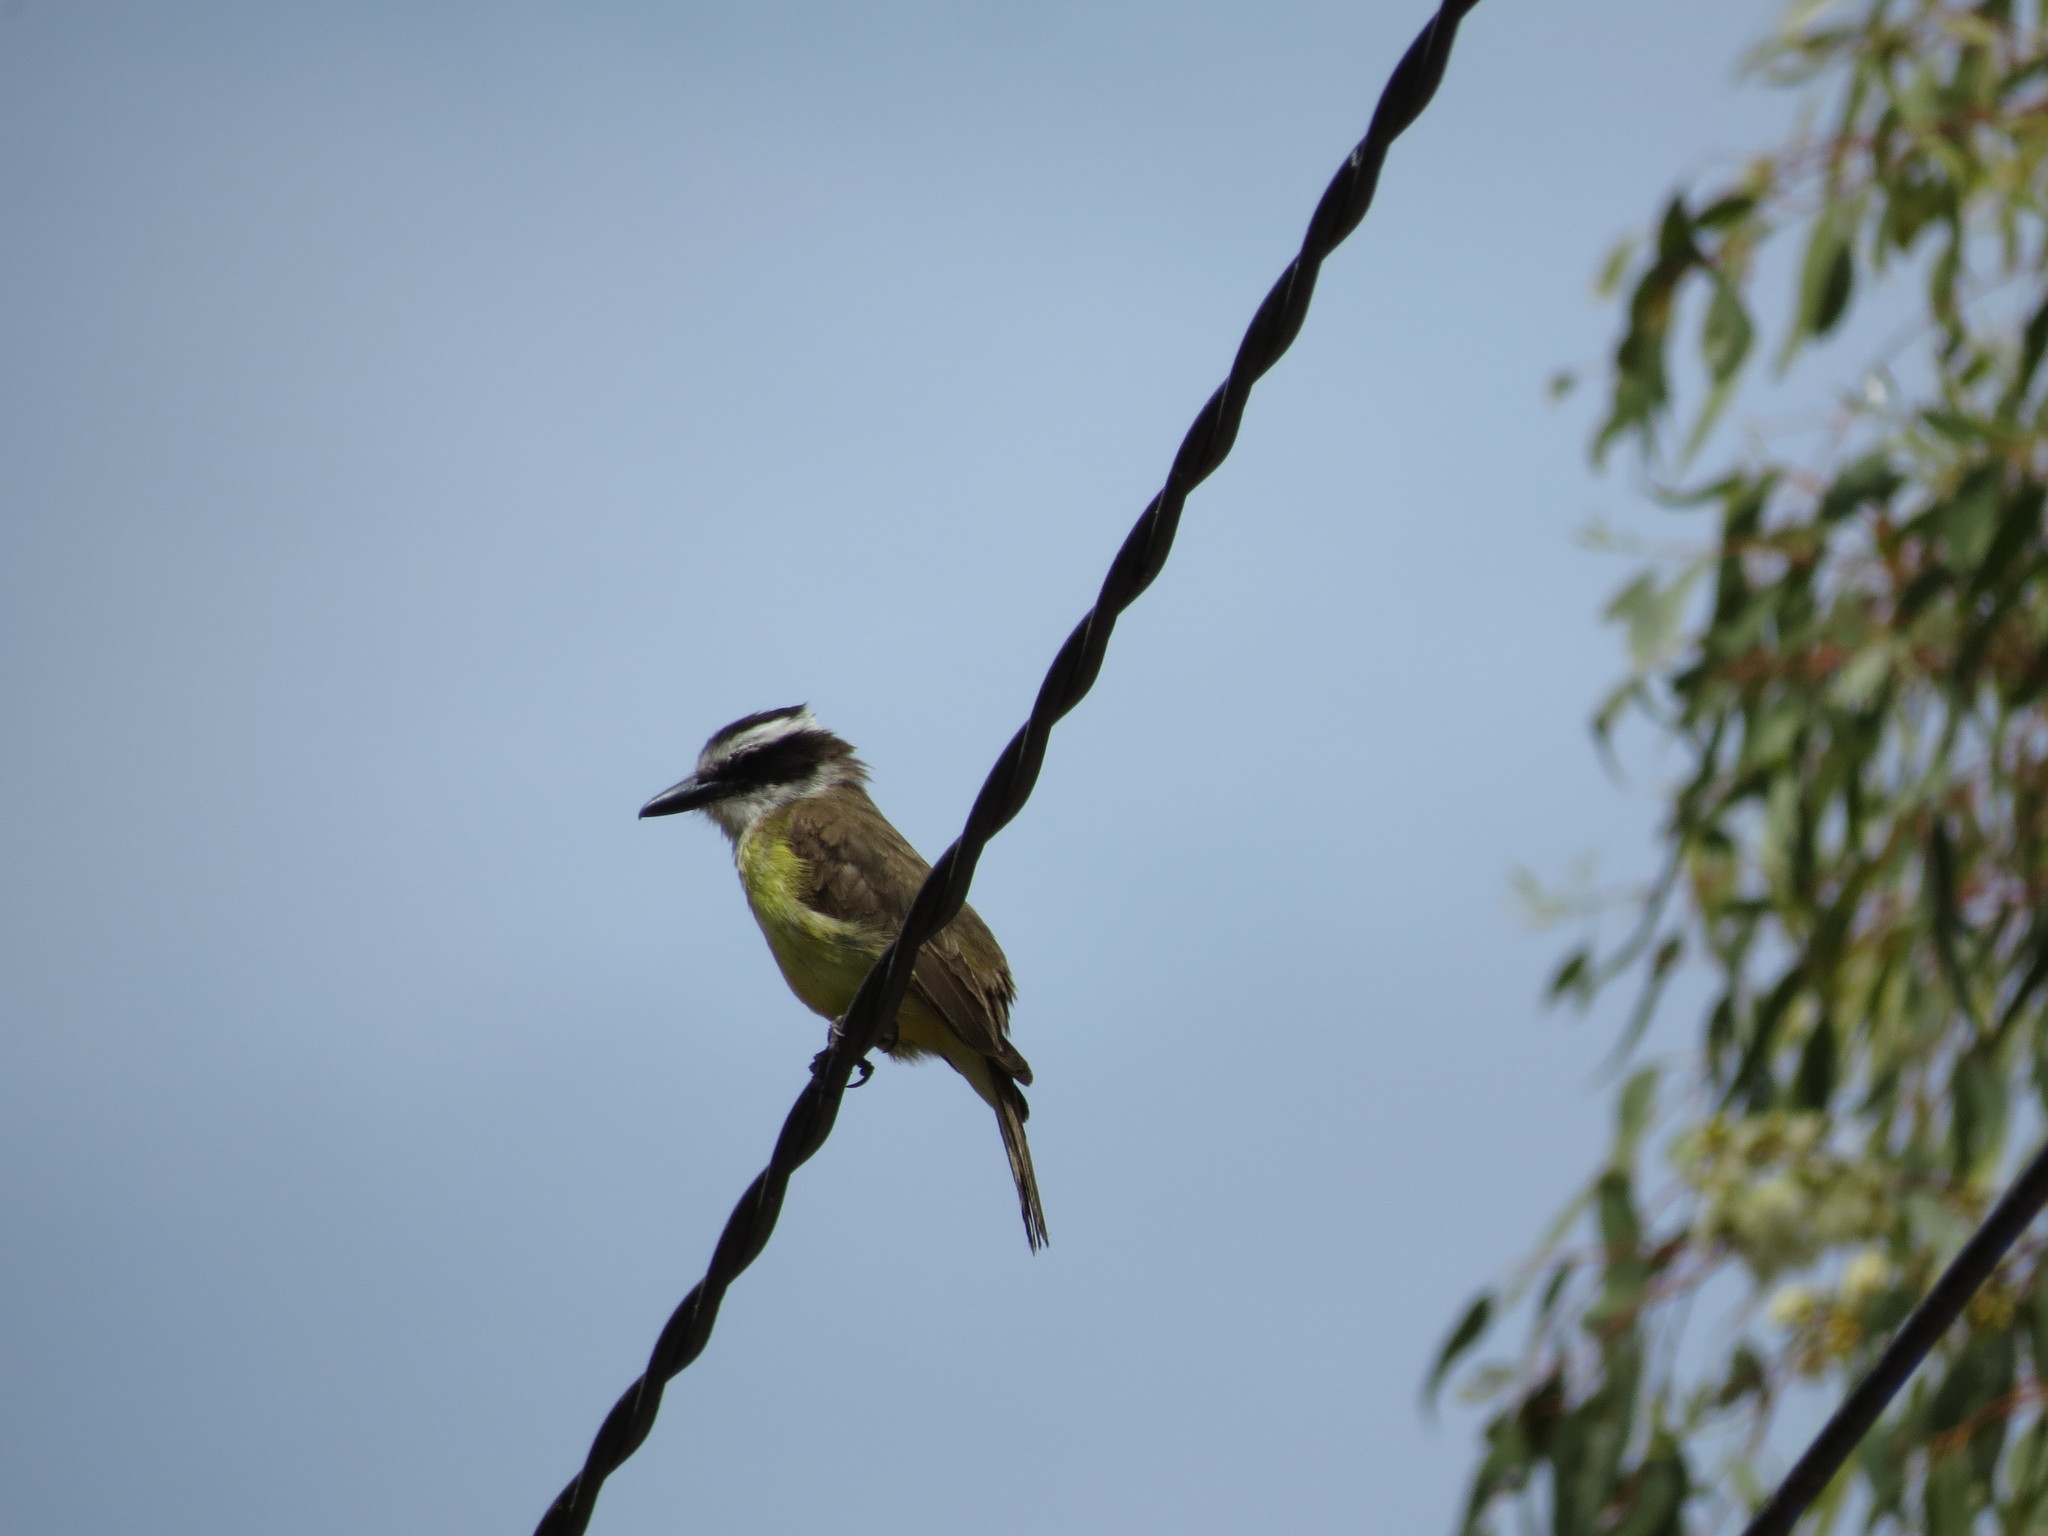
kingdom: Animalia
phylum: Chordata
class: Aves
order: Passeriformes
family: Tyrannidae
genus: Pitangus
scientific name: Pitangus sulphuratus
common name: Great kiskadee
